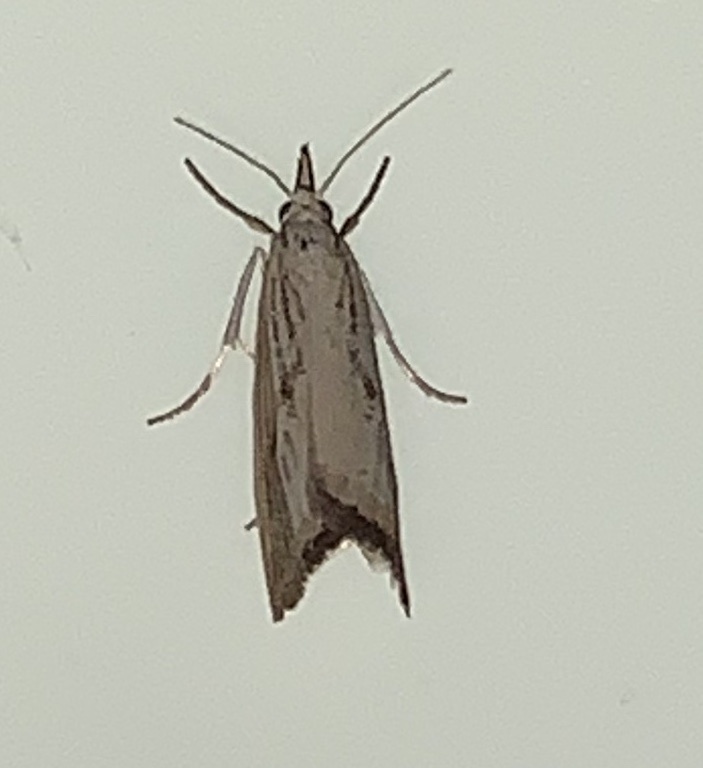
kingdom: Animalia
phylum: Arthropoda
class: Insecta
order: Lepidoptera
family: Crambidae
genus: Agriphila
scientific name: Agriphila ruricolellus
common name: Lesser vagabond sod webworm
